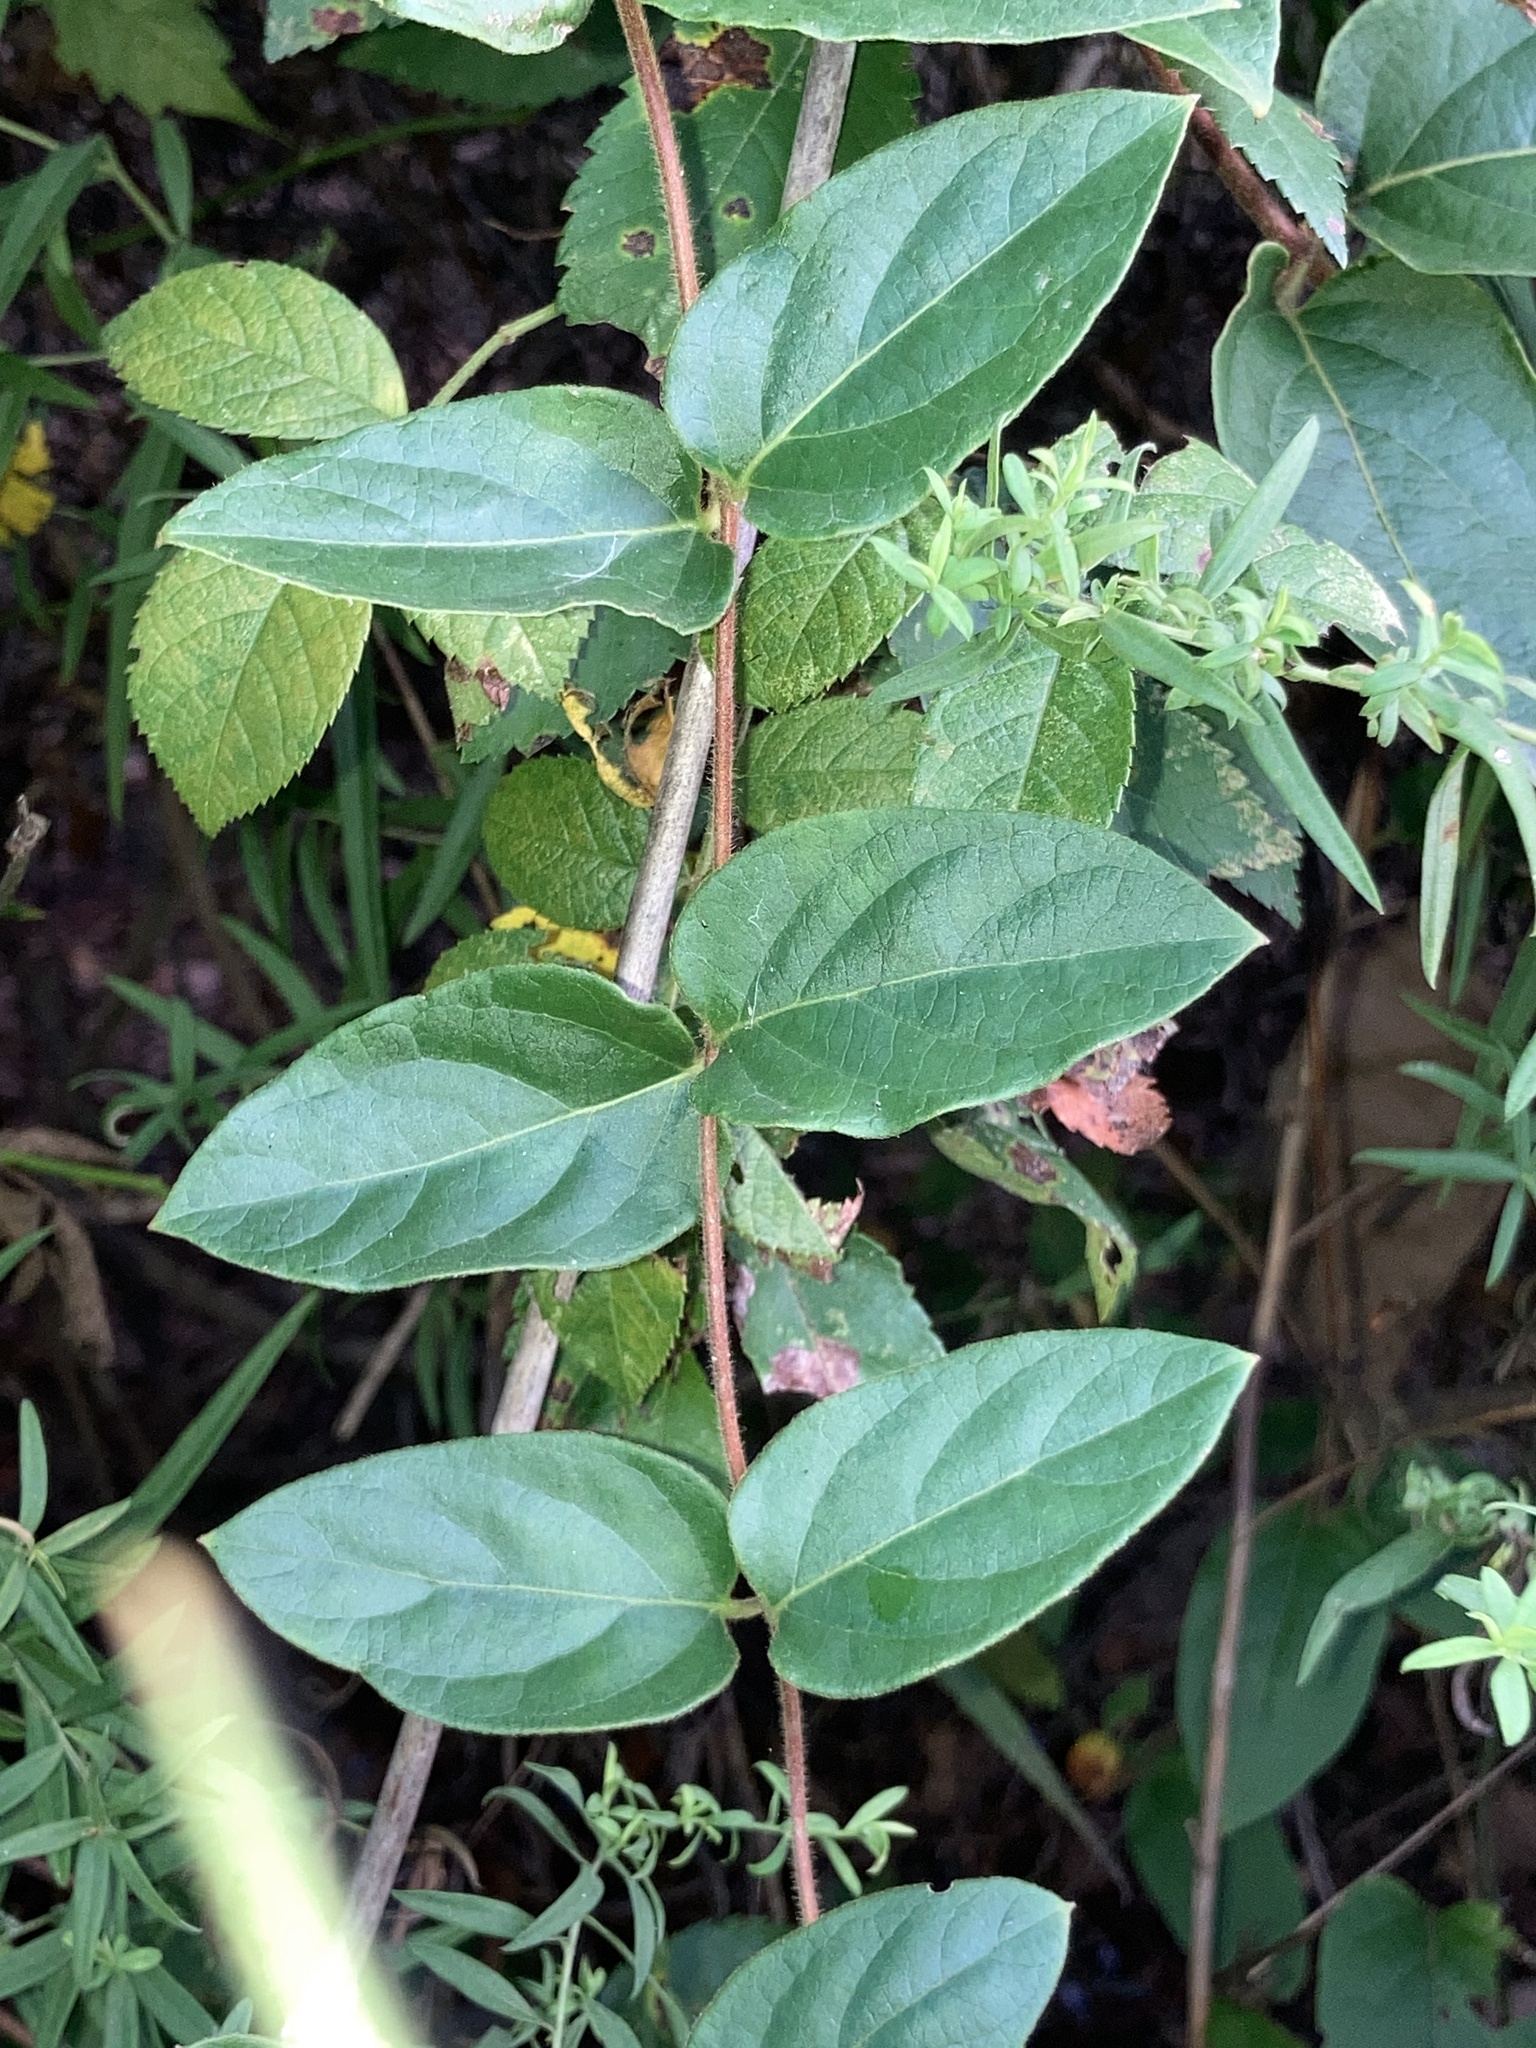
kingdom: Plantae
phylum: Tracheophyta
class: Magnoliopsida
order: Dipsacales
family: Caprifoliaceae
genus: Lonicera
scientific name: Lonicera japonica
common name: Japanese honeysuckle
